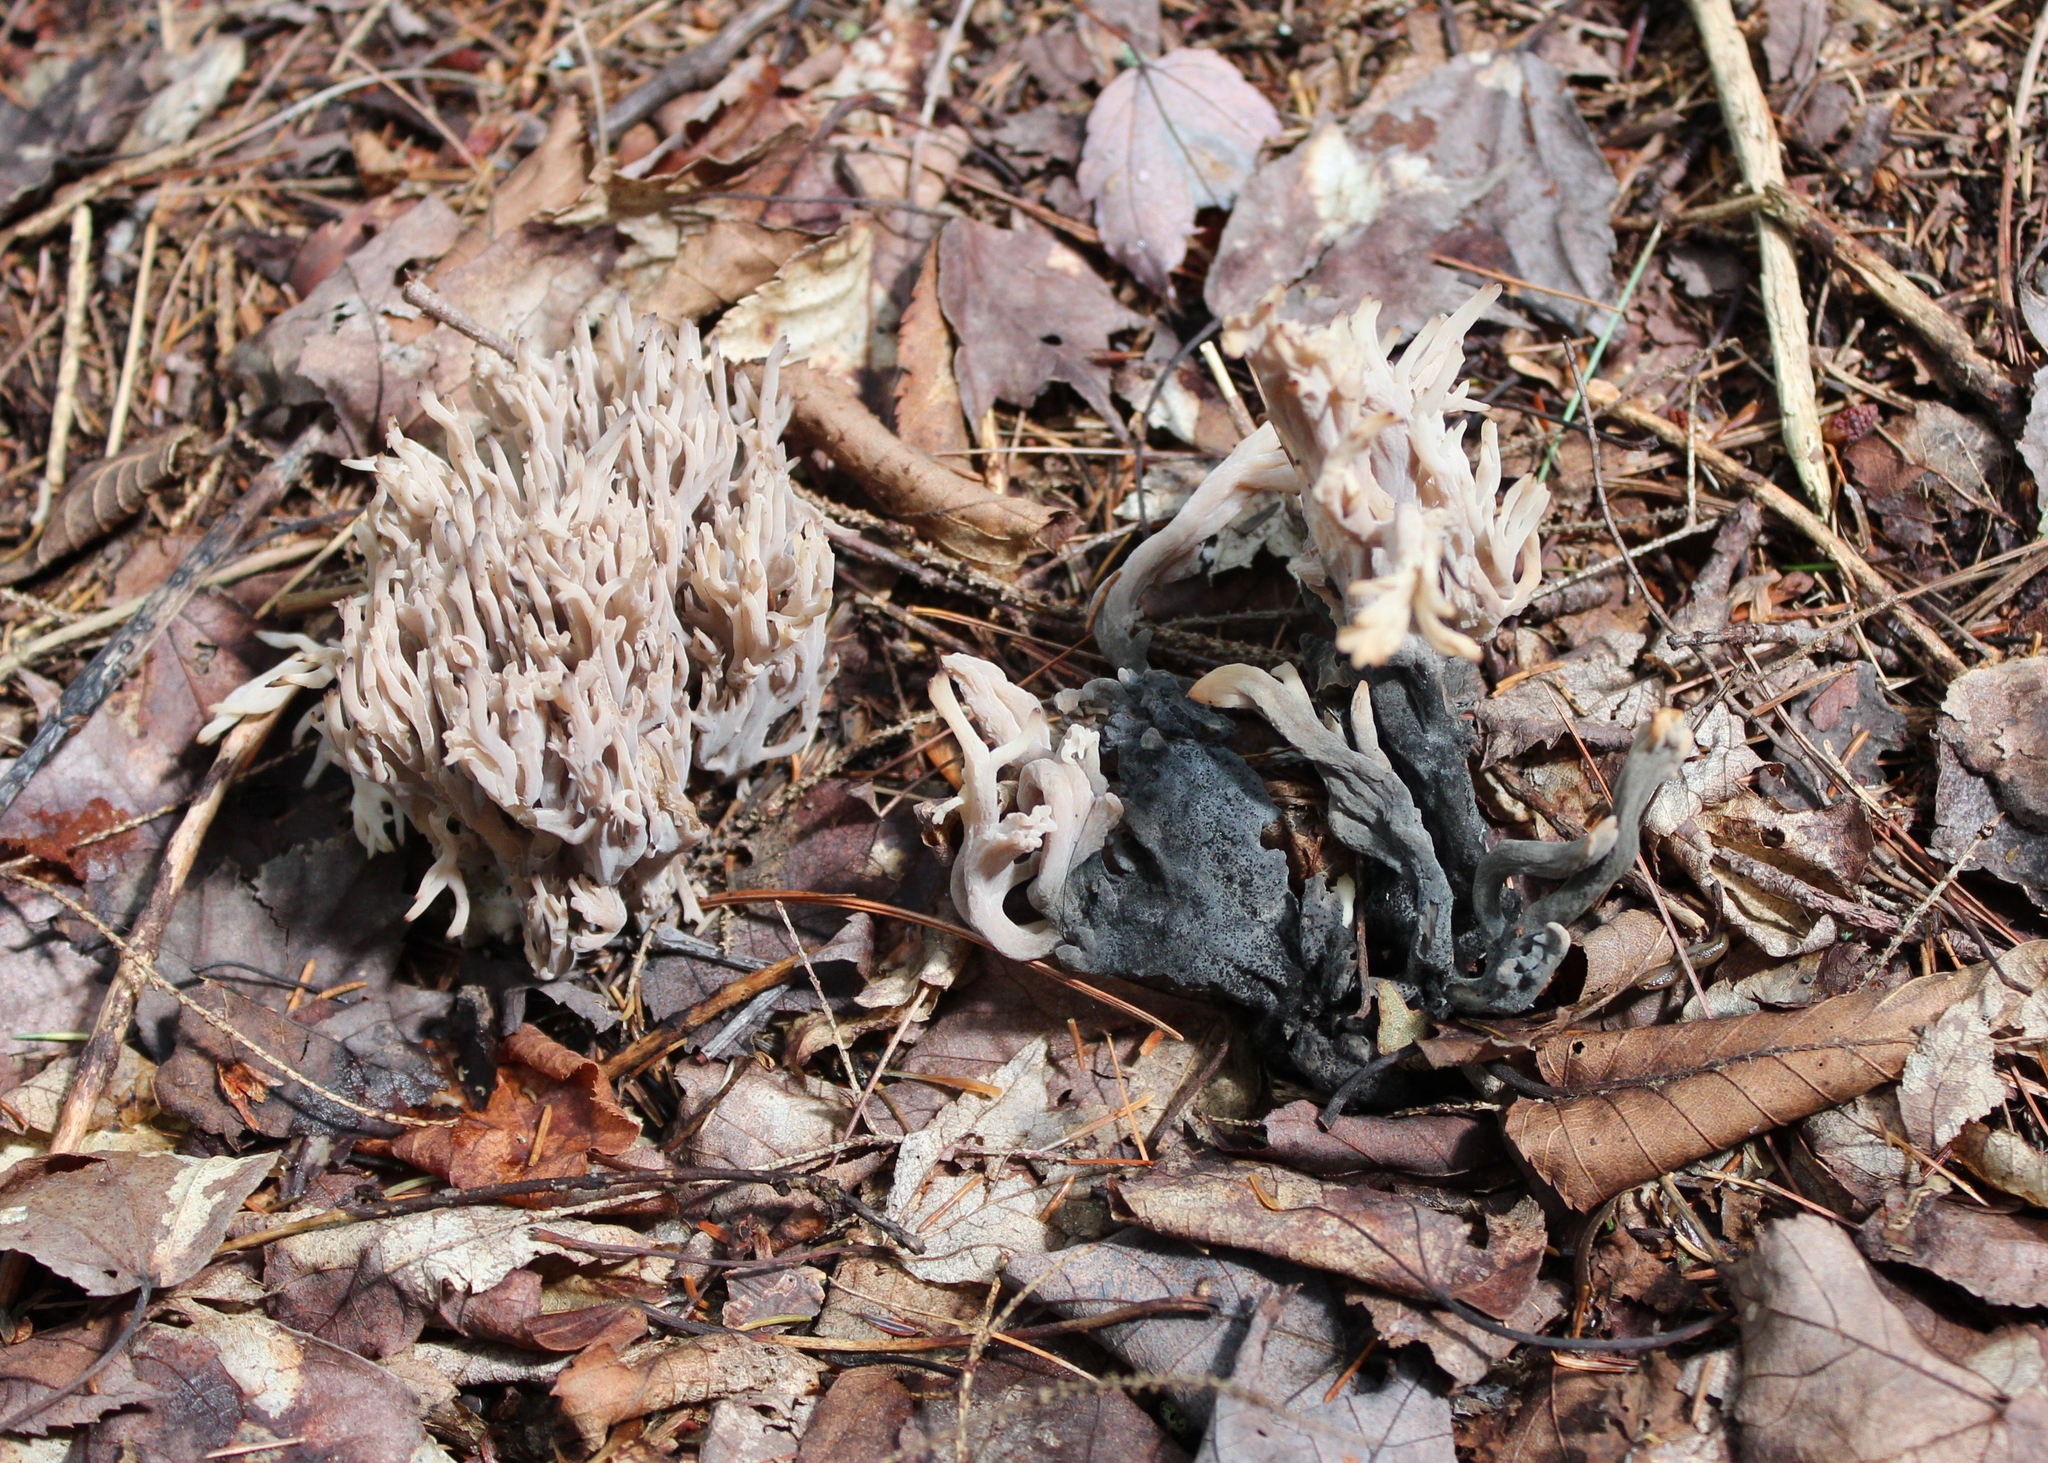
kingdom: Fungi
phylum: Basidiomycota
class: Agaricomycetes
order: Cantharellales
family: Hydnaceae
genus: Clavulina
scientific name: Clavulina cinerea
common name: Grey coral
